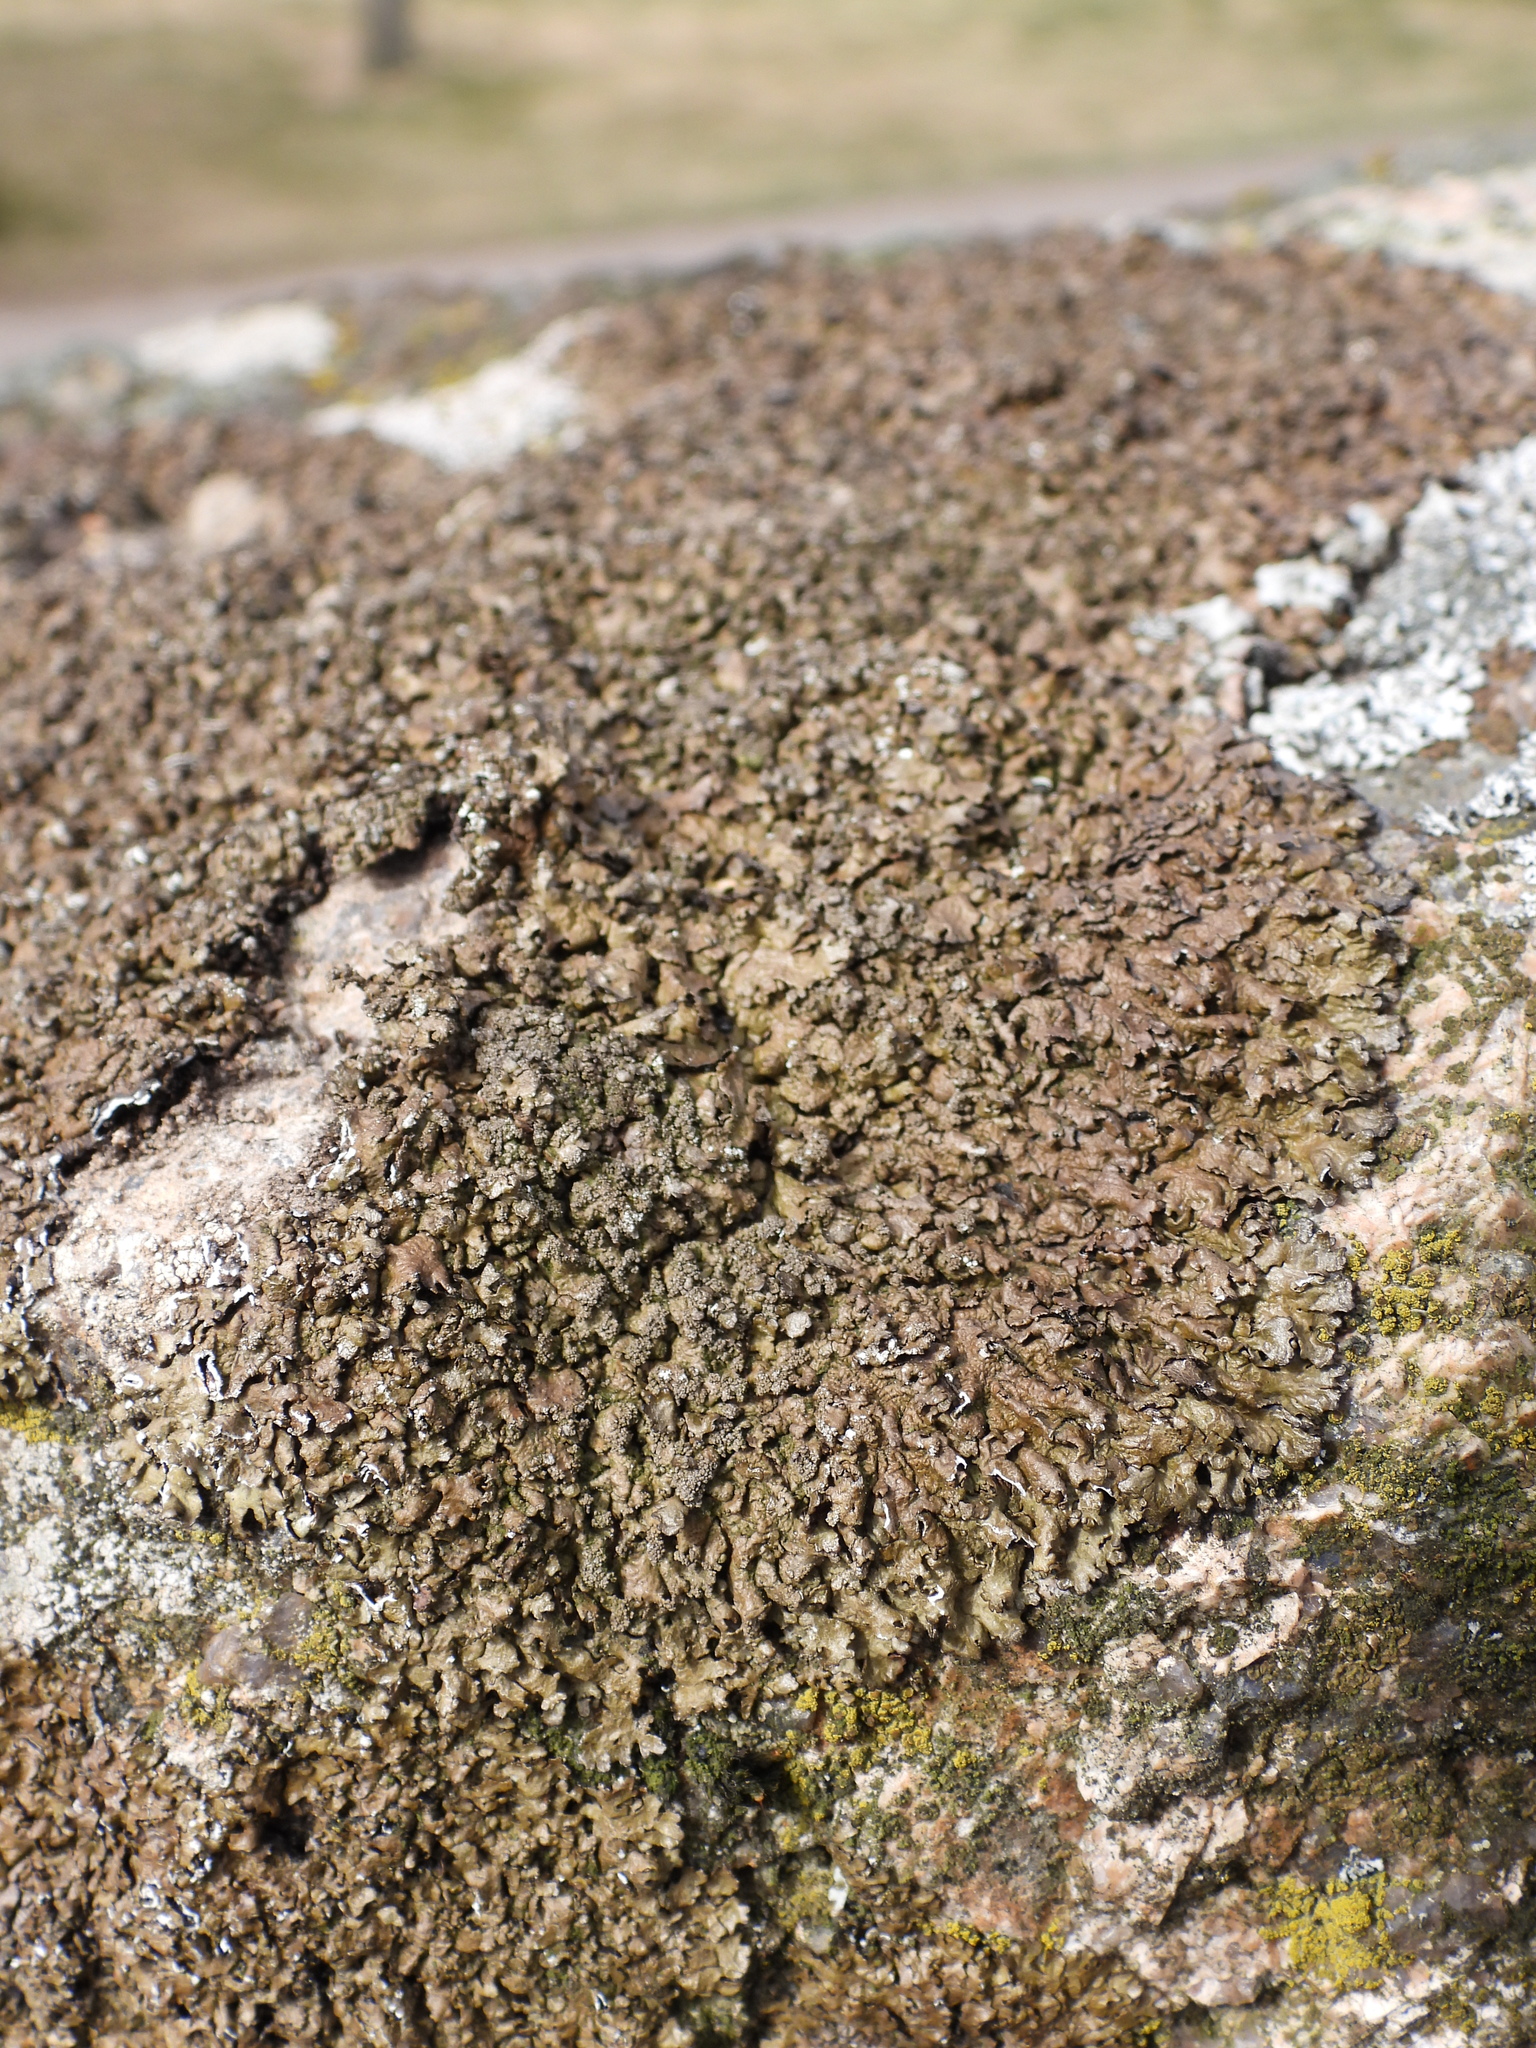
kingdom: Fungi
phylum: Ascomycota
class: Lecanoromycetes
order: Lecanorales
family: Parmeliaceae
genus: Xanthoparmelia
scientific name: Xanthoparmelia loxodes
